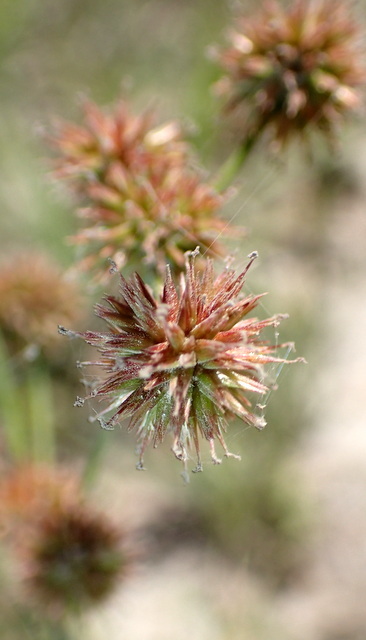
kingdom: Plantae
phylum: Tracheophyta
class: Liliopsida
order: Poales
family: Juncaceae
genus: Juncus
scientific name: Juncus megacephalus
